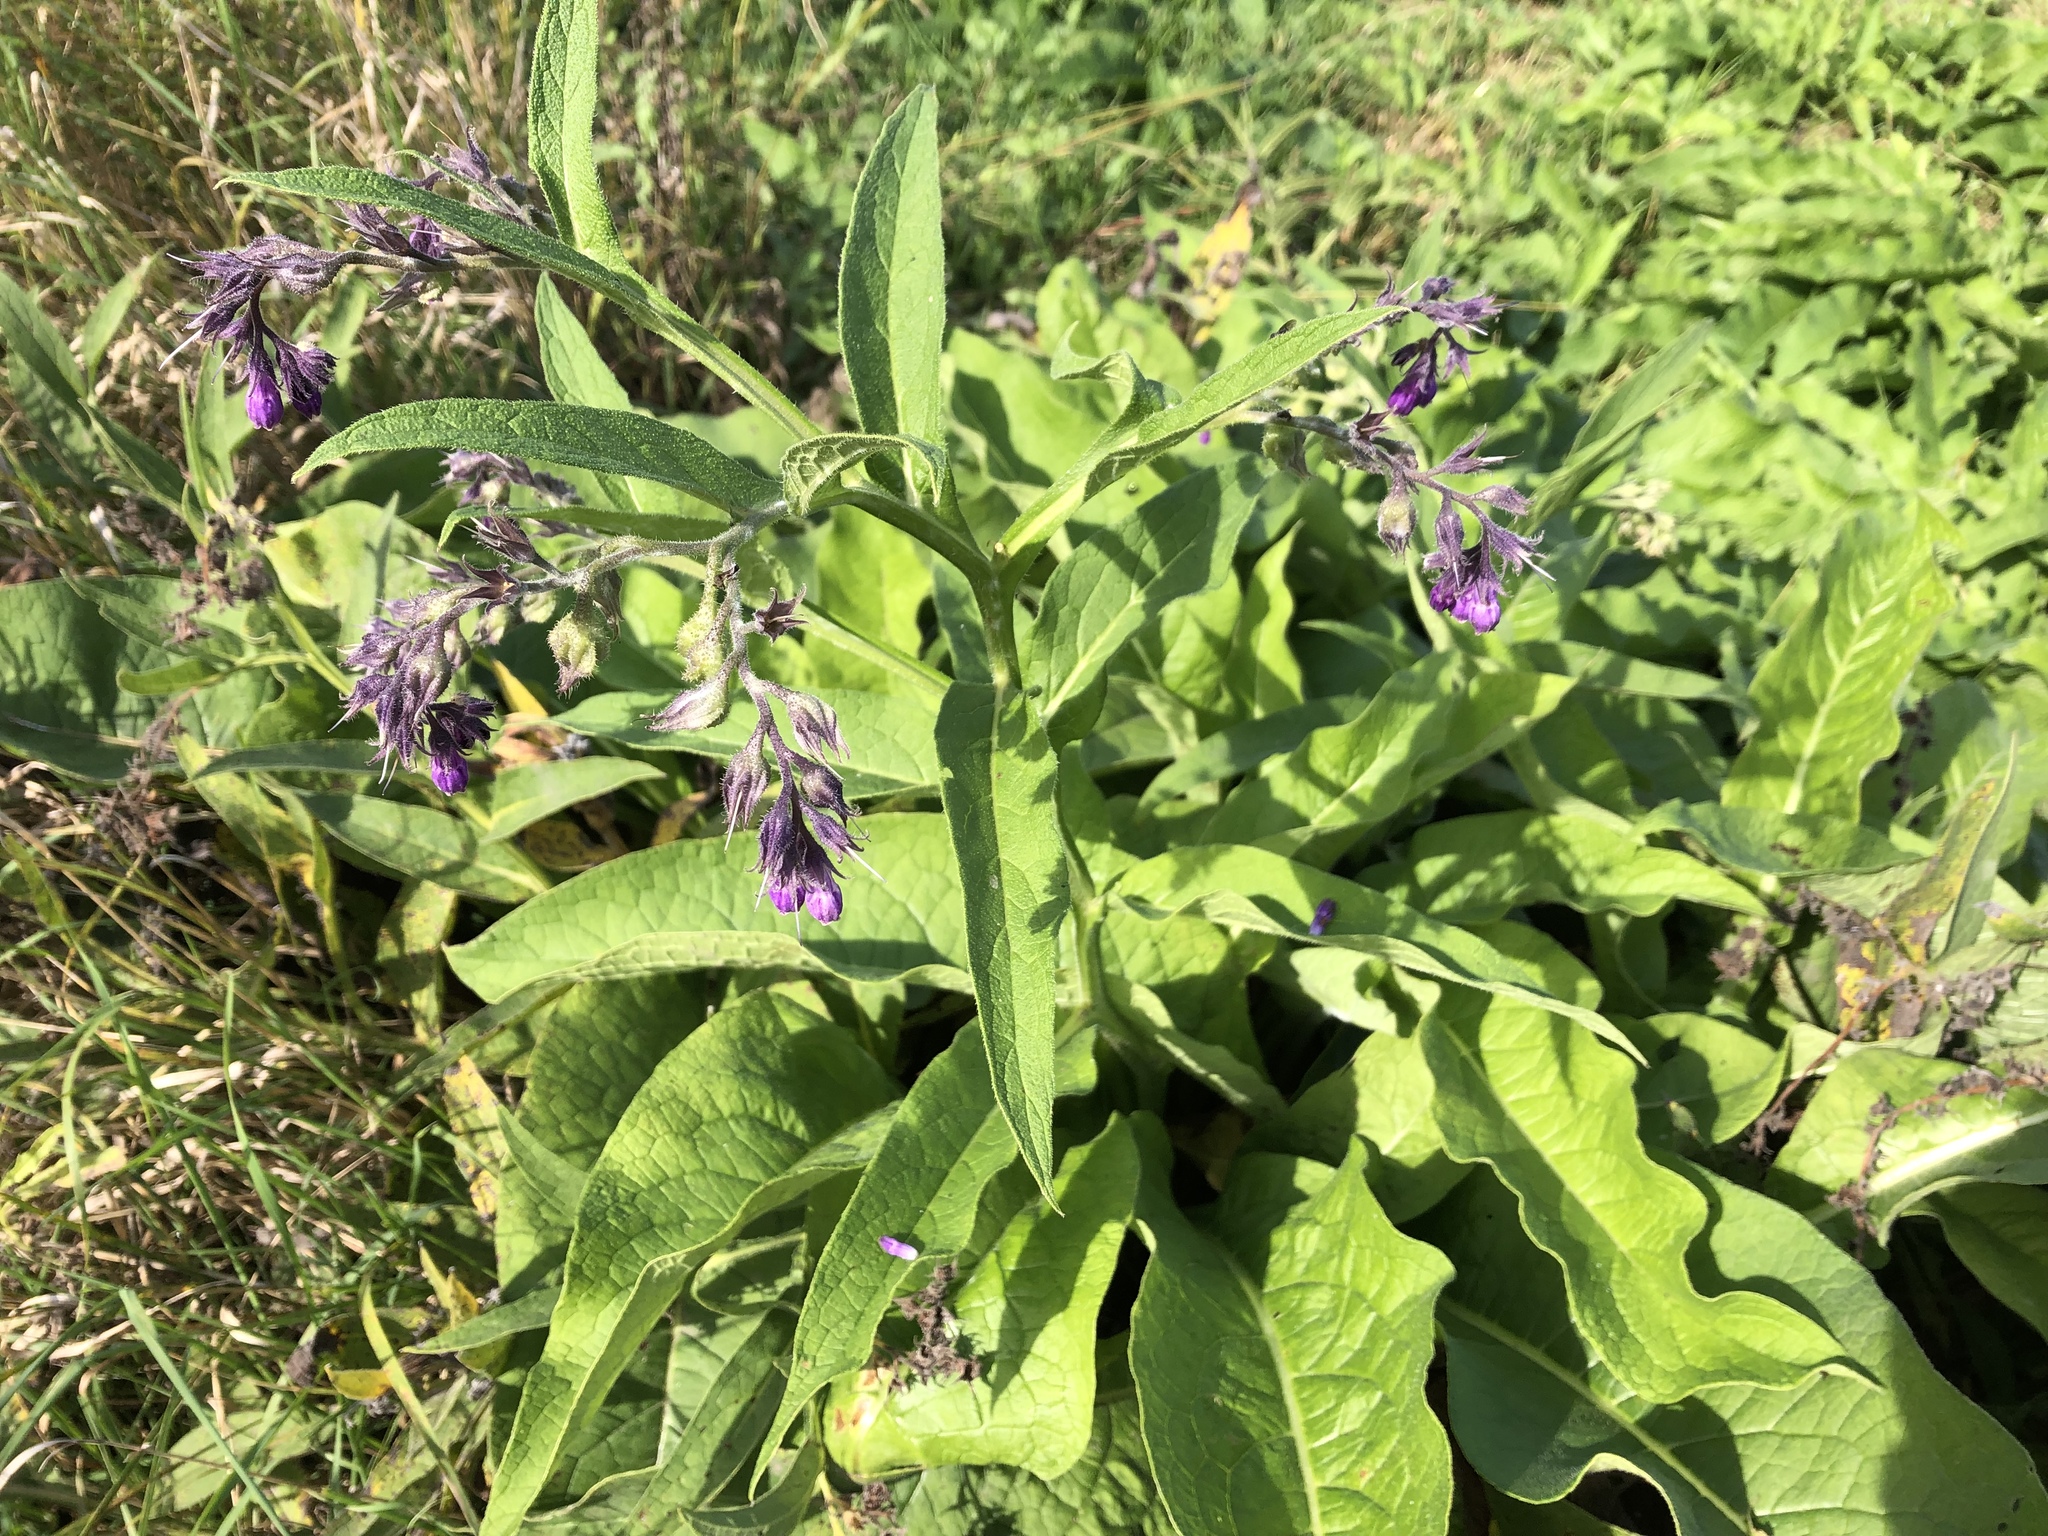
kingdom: Plantae
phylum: Tracheophyta
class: Magnoliopsida
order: Boraginales
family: Boraginaceae
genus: Symphytum
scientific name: Symphytum officinale
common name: Common comfrey
